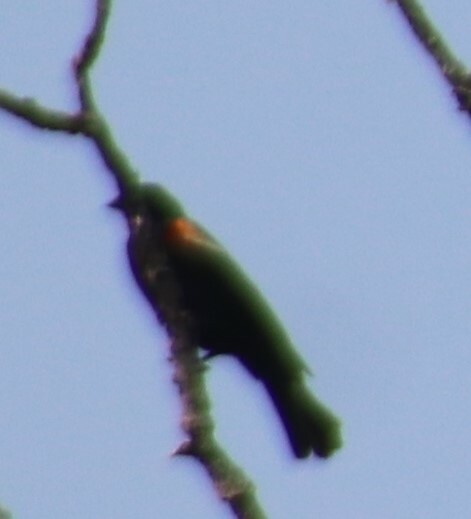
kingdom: Animalia
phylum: Chordata
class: Aves
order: Passeriformes
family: Icteridae
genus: Agelaius
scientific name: Agelaius phoeniceus
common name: Red-winged blackbird
